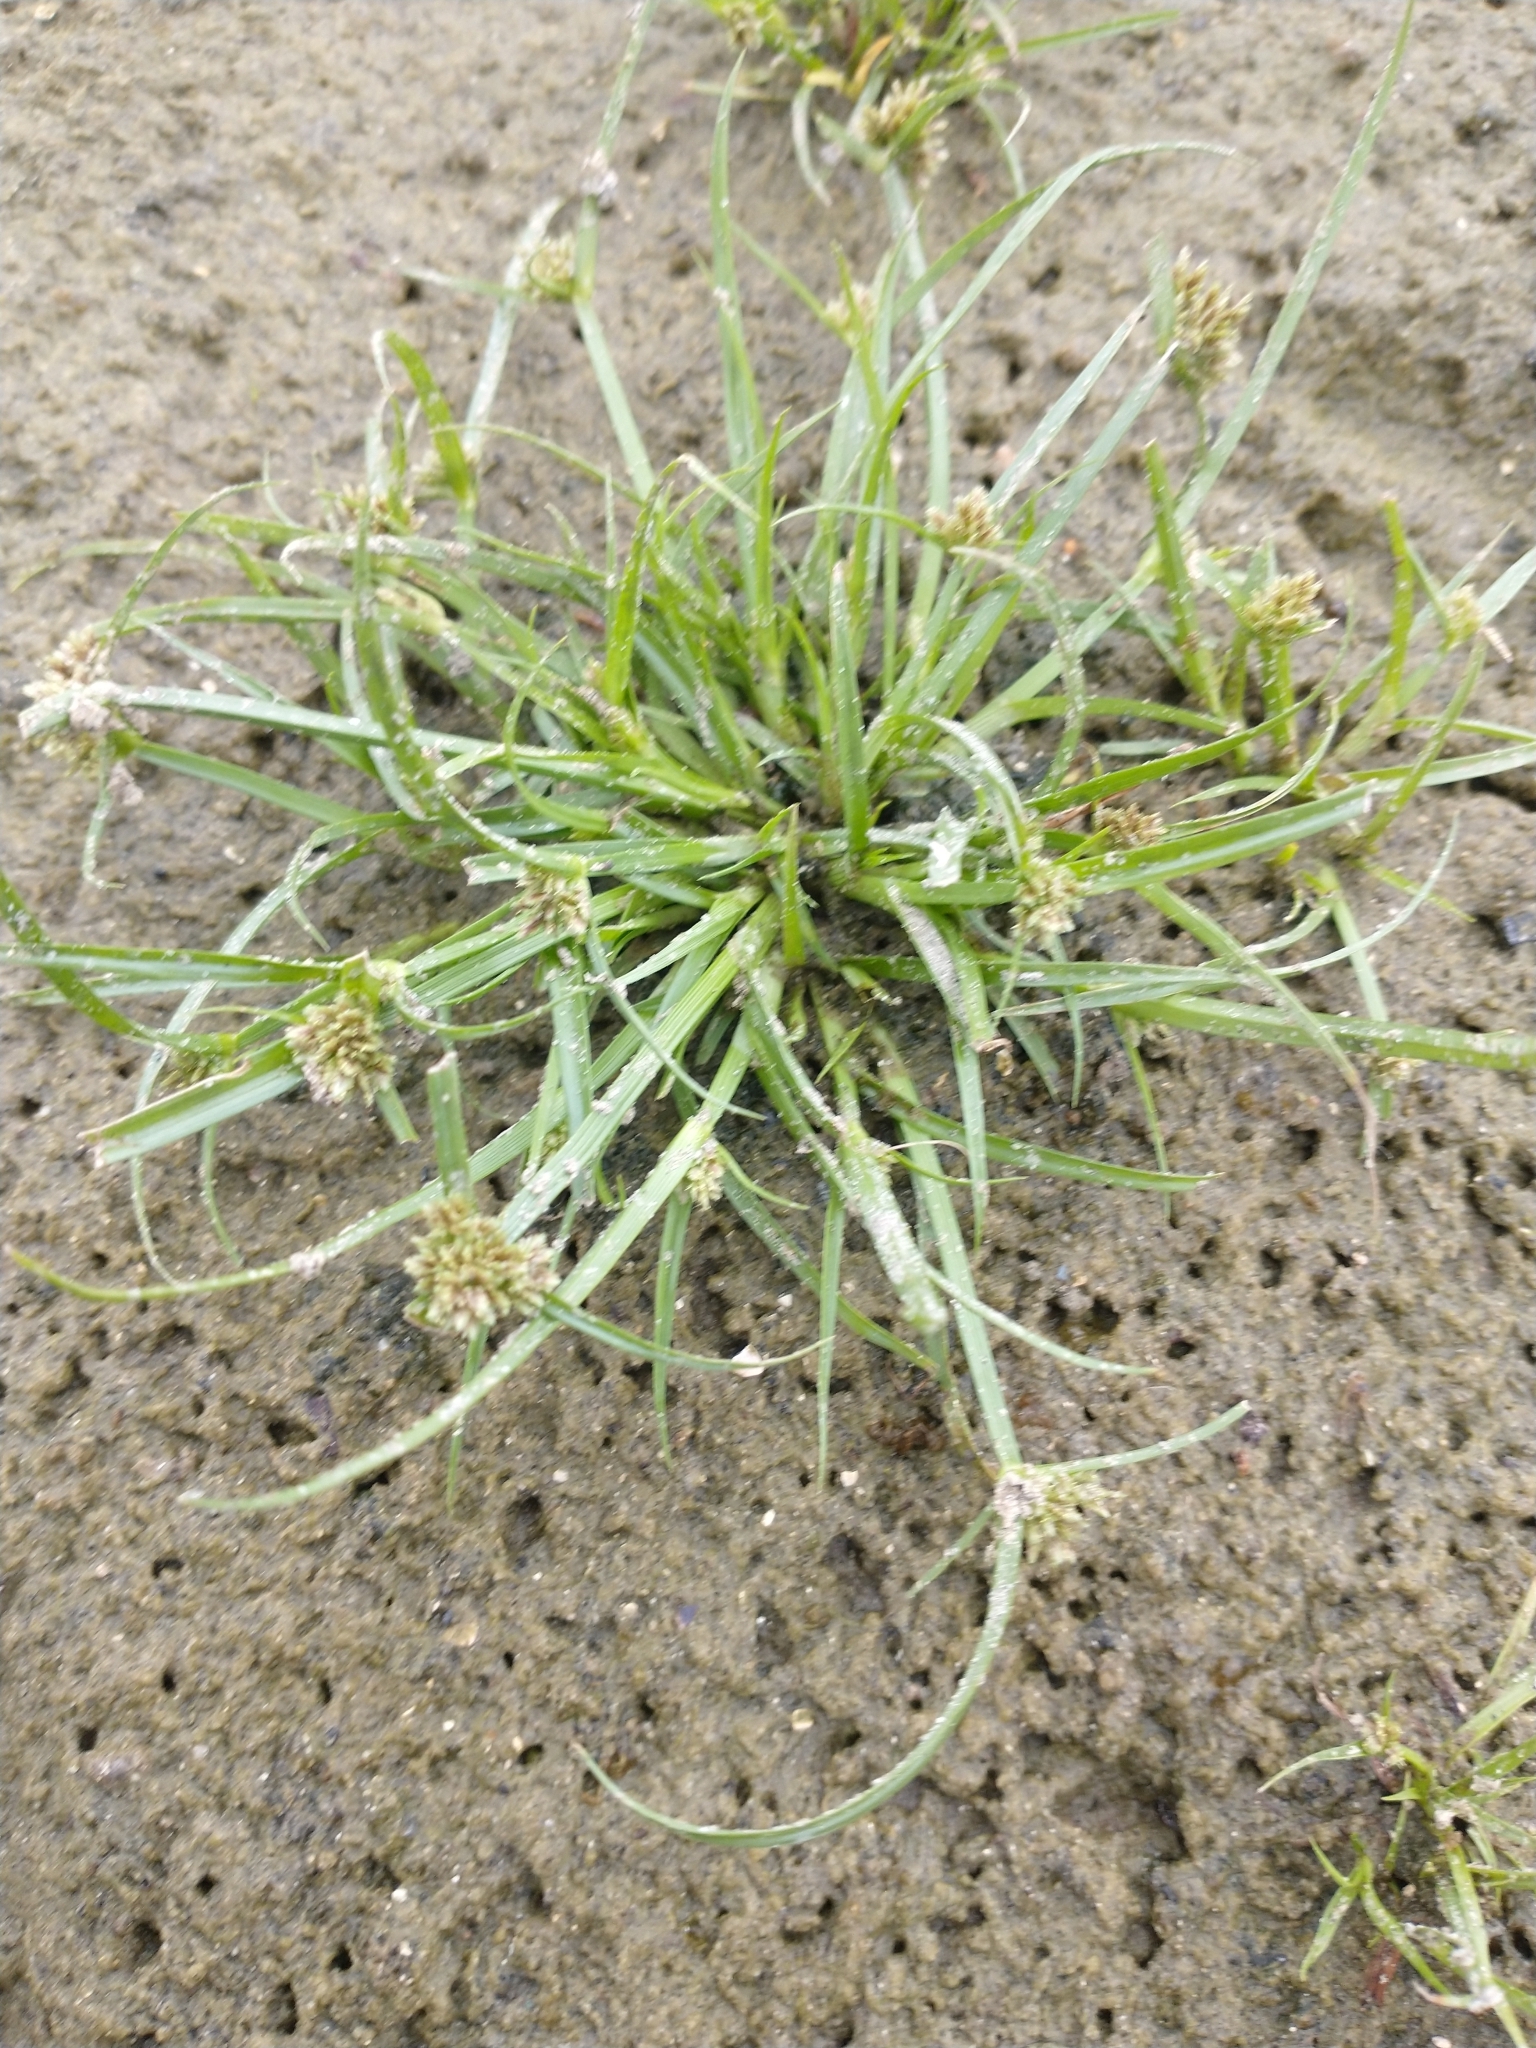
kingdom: Plantae
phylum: Tracheophyta
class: Liliopsida
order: Poales
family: Cyperaceae
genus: Cyperus
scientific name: Cyperus fuscus
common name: Brown galingale
